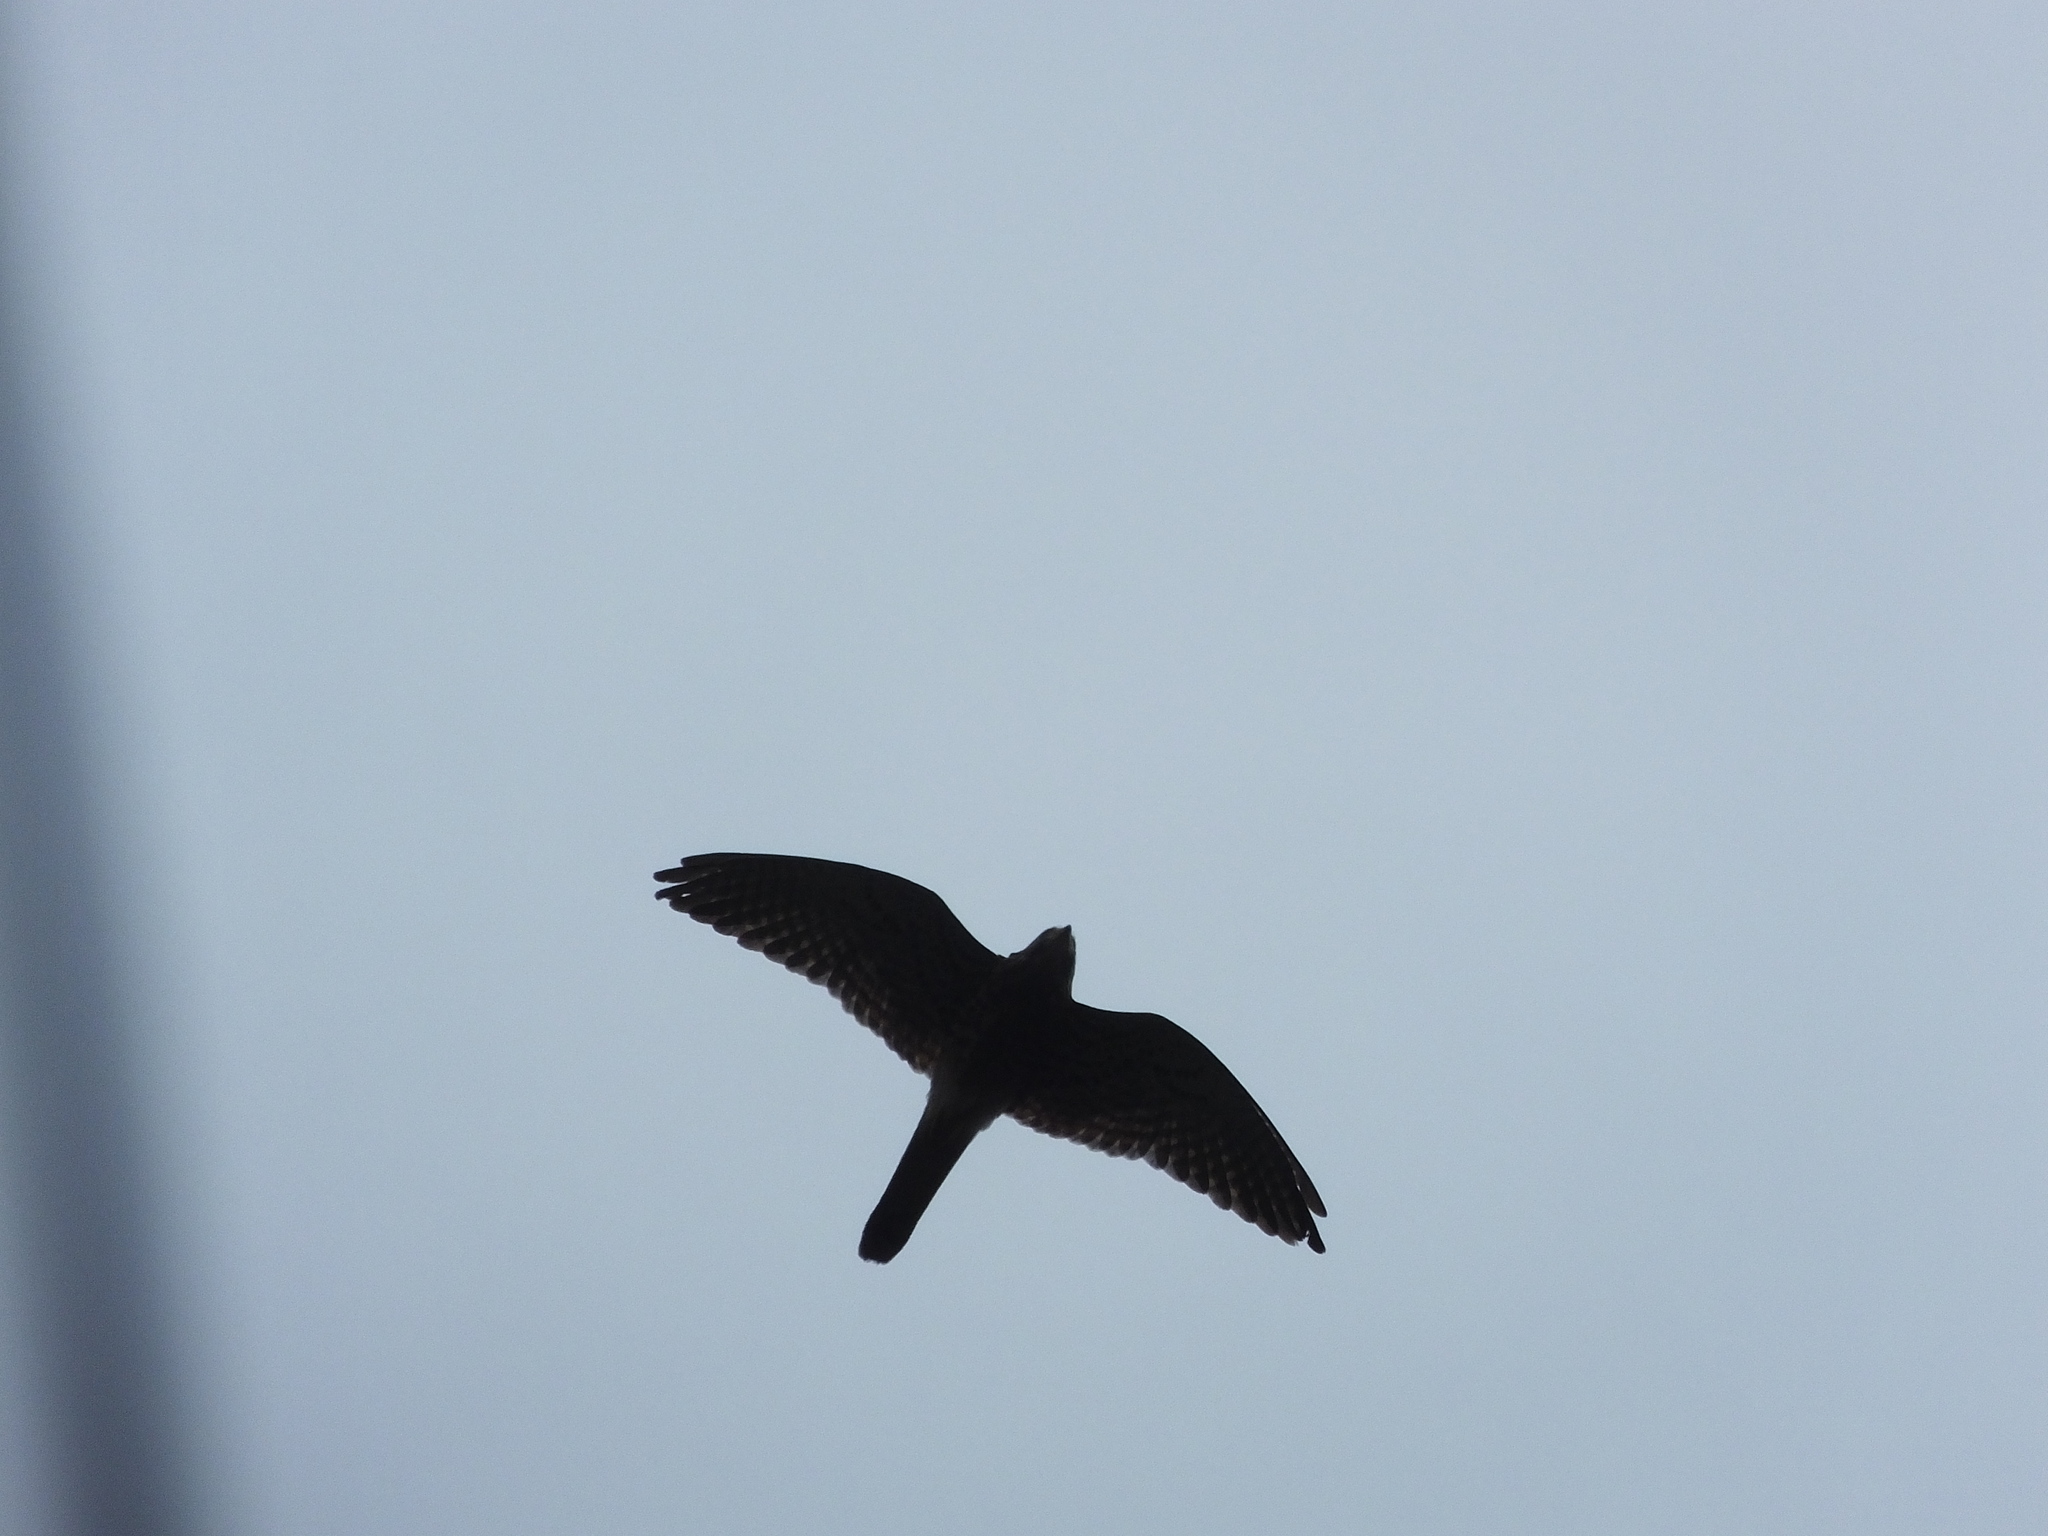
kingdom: Animalia
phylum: Chordata
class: Aves
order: Falconiformes
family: Falconidae
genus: Falco
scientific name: Falco moluccensis
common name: Spotted kestrel
